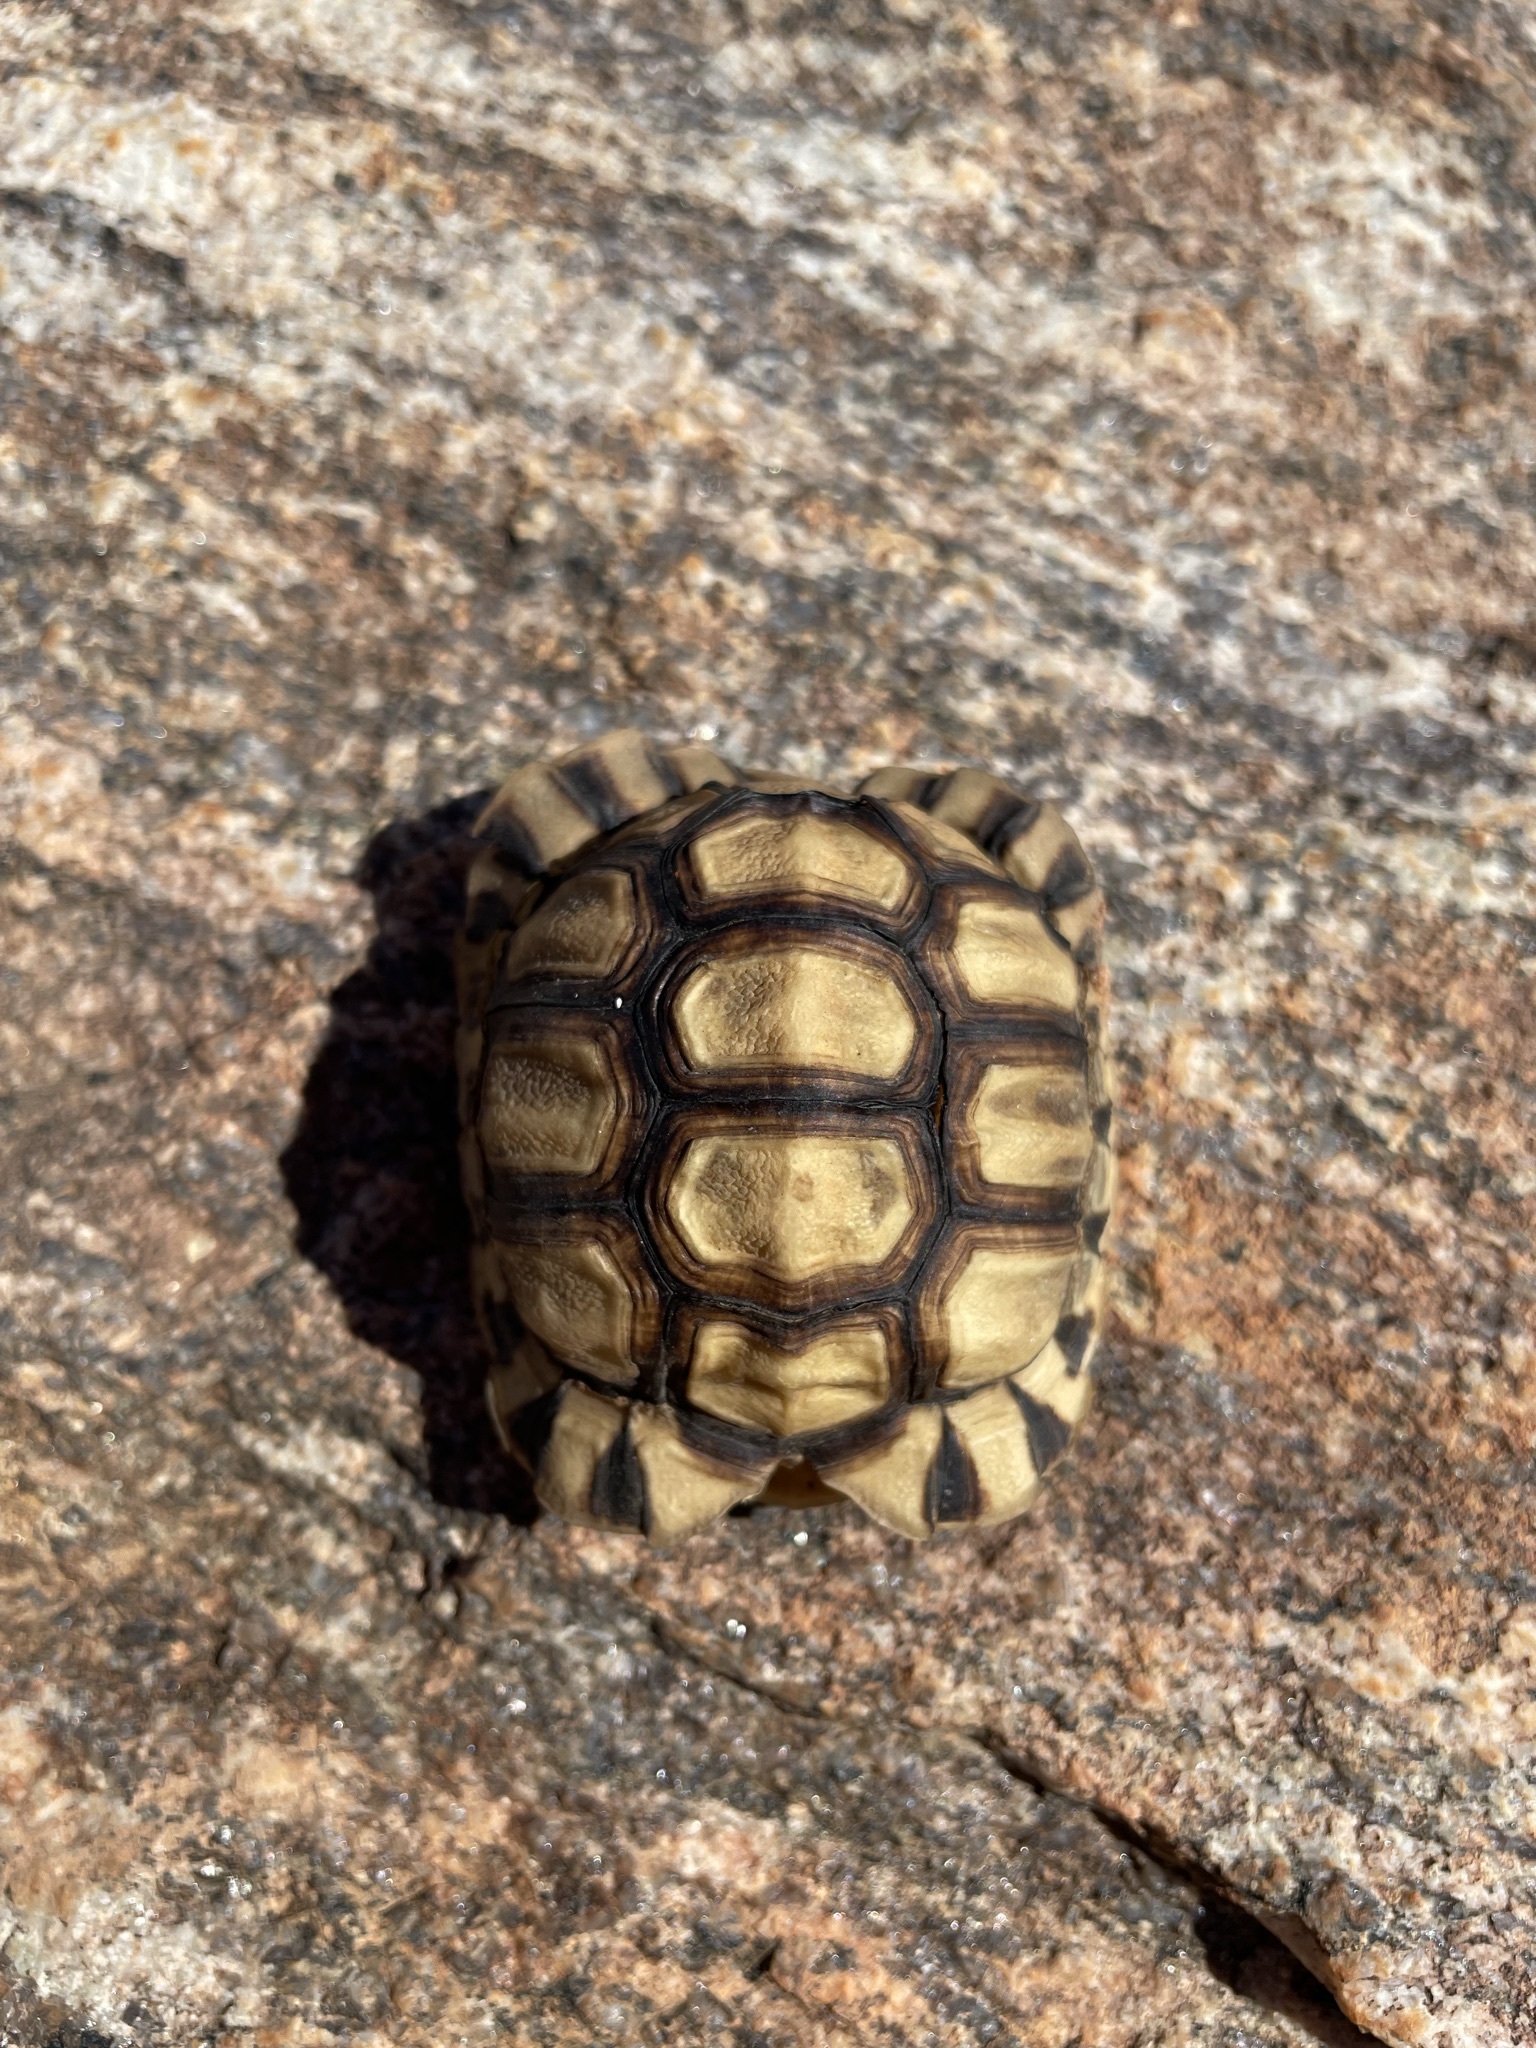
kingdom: Animalia
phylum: Chordata
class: Testudines
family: Testudinidae
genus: Chersina
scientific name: Chersina angulata
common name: South african bowsprit tortoise
